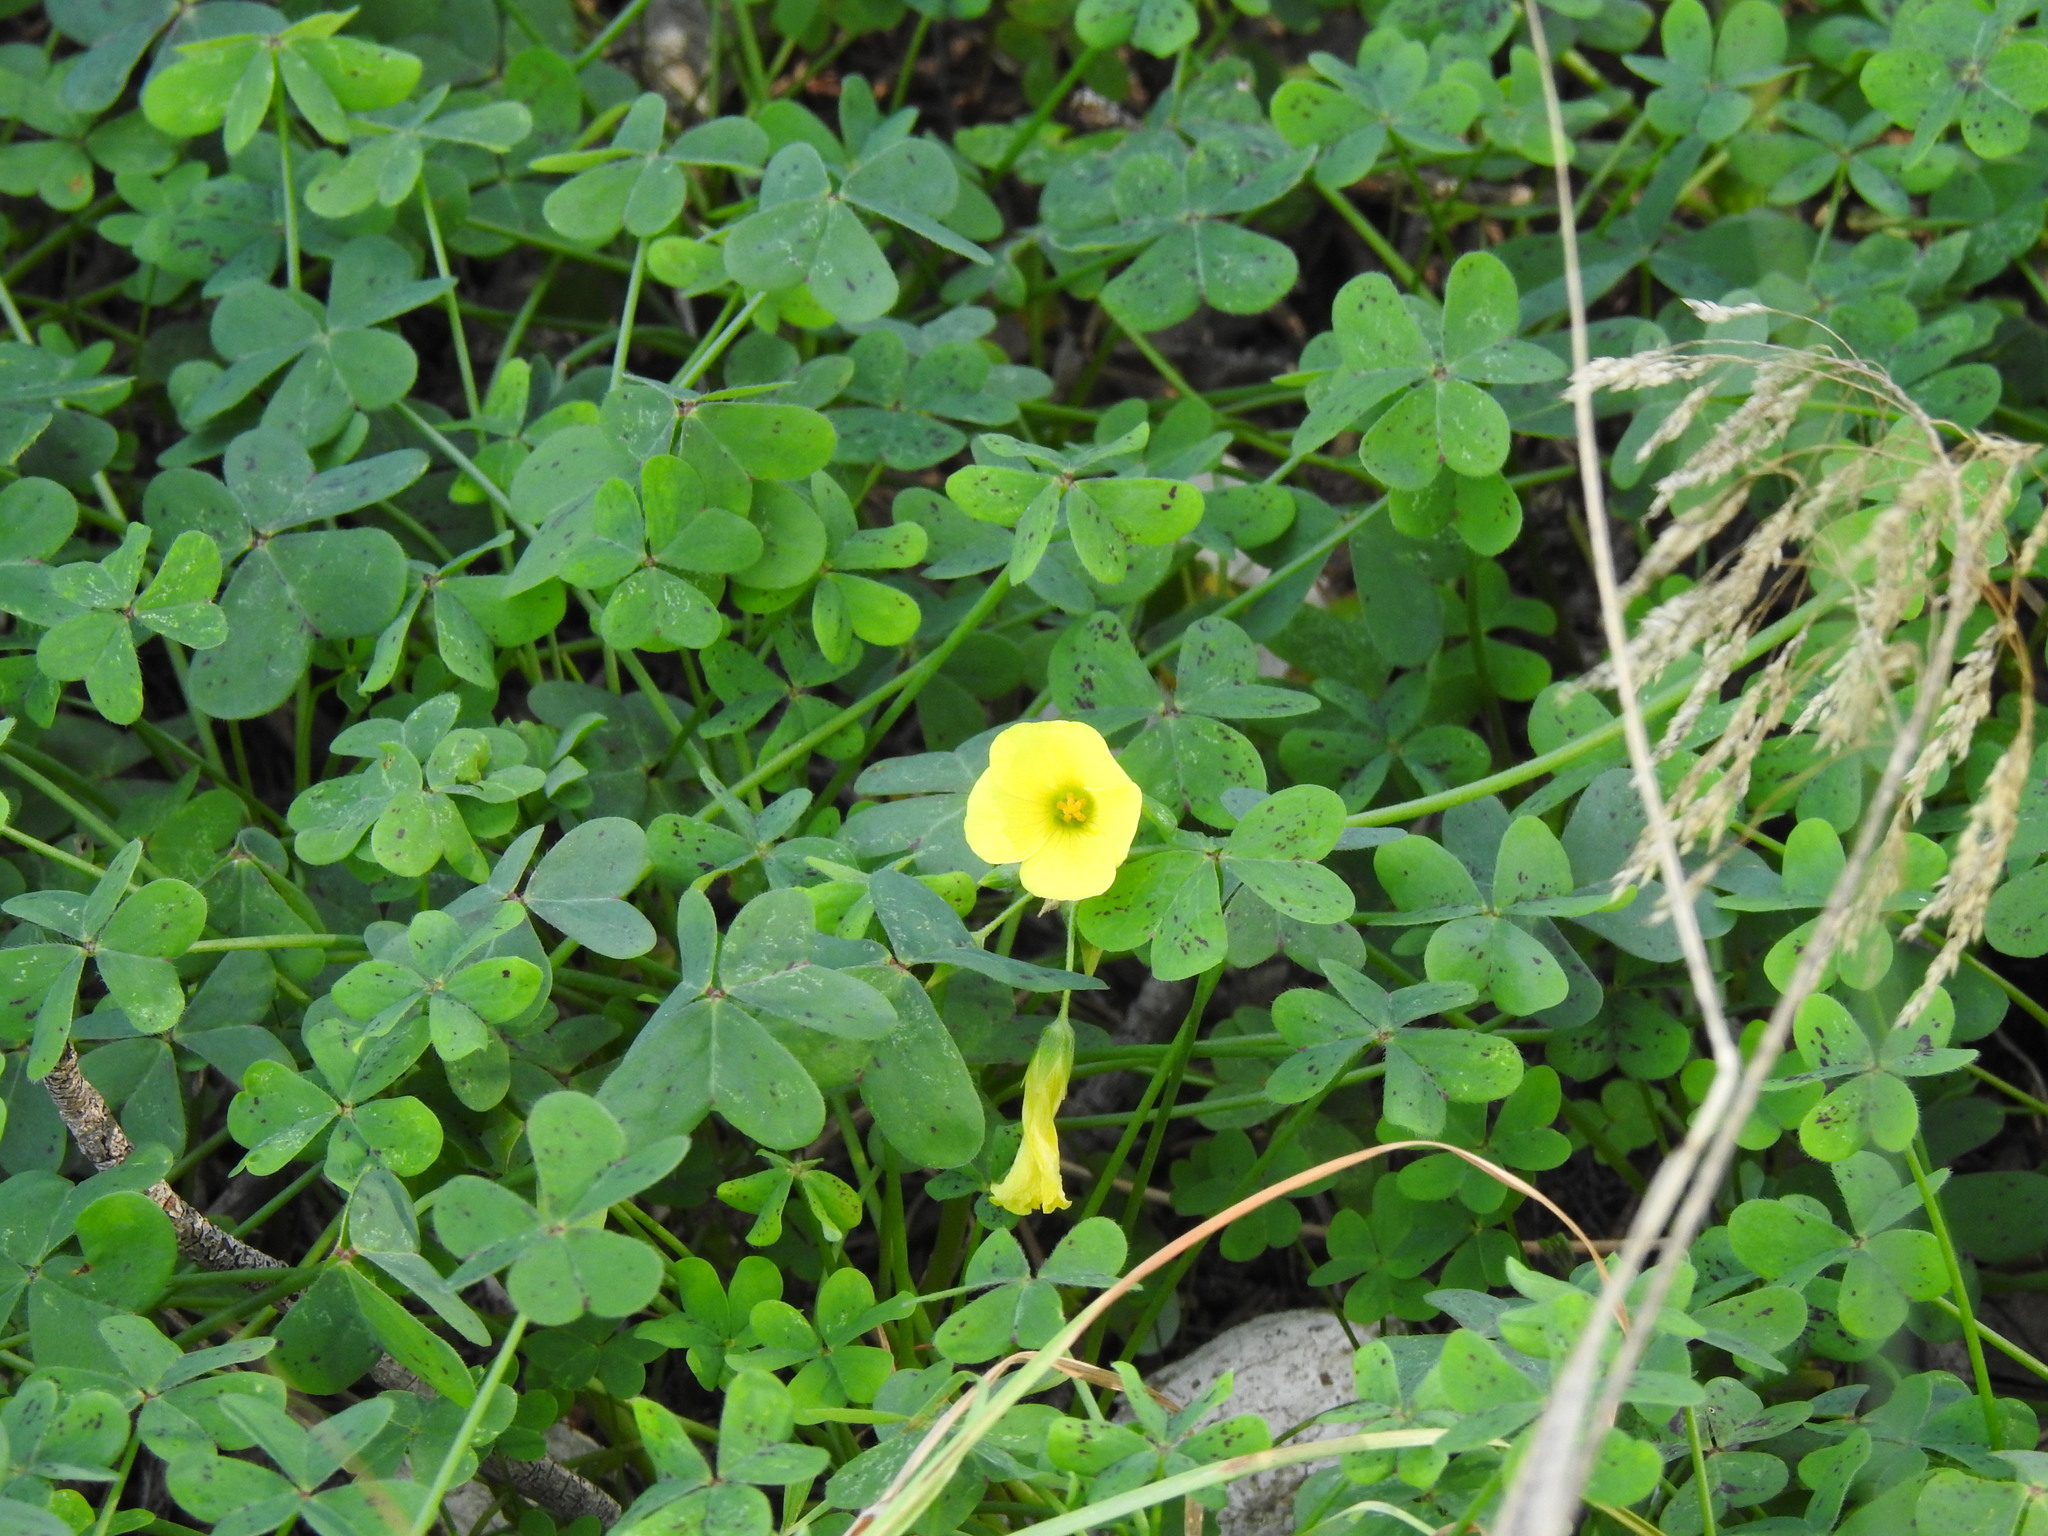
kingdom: Plantae
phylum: Tracheophyta
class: Magnoliopsida
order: Oxalidales
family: Oxalidaceae
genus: Oxalis
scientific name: Oxalis pes-caprae
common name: Bermuda-buttercup
